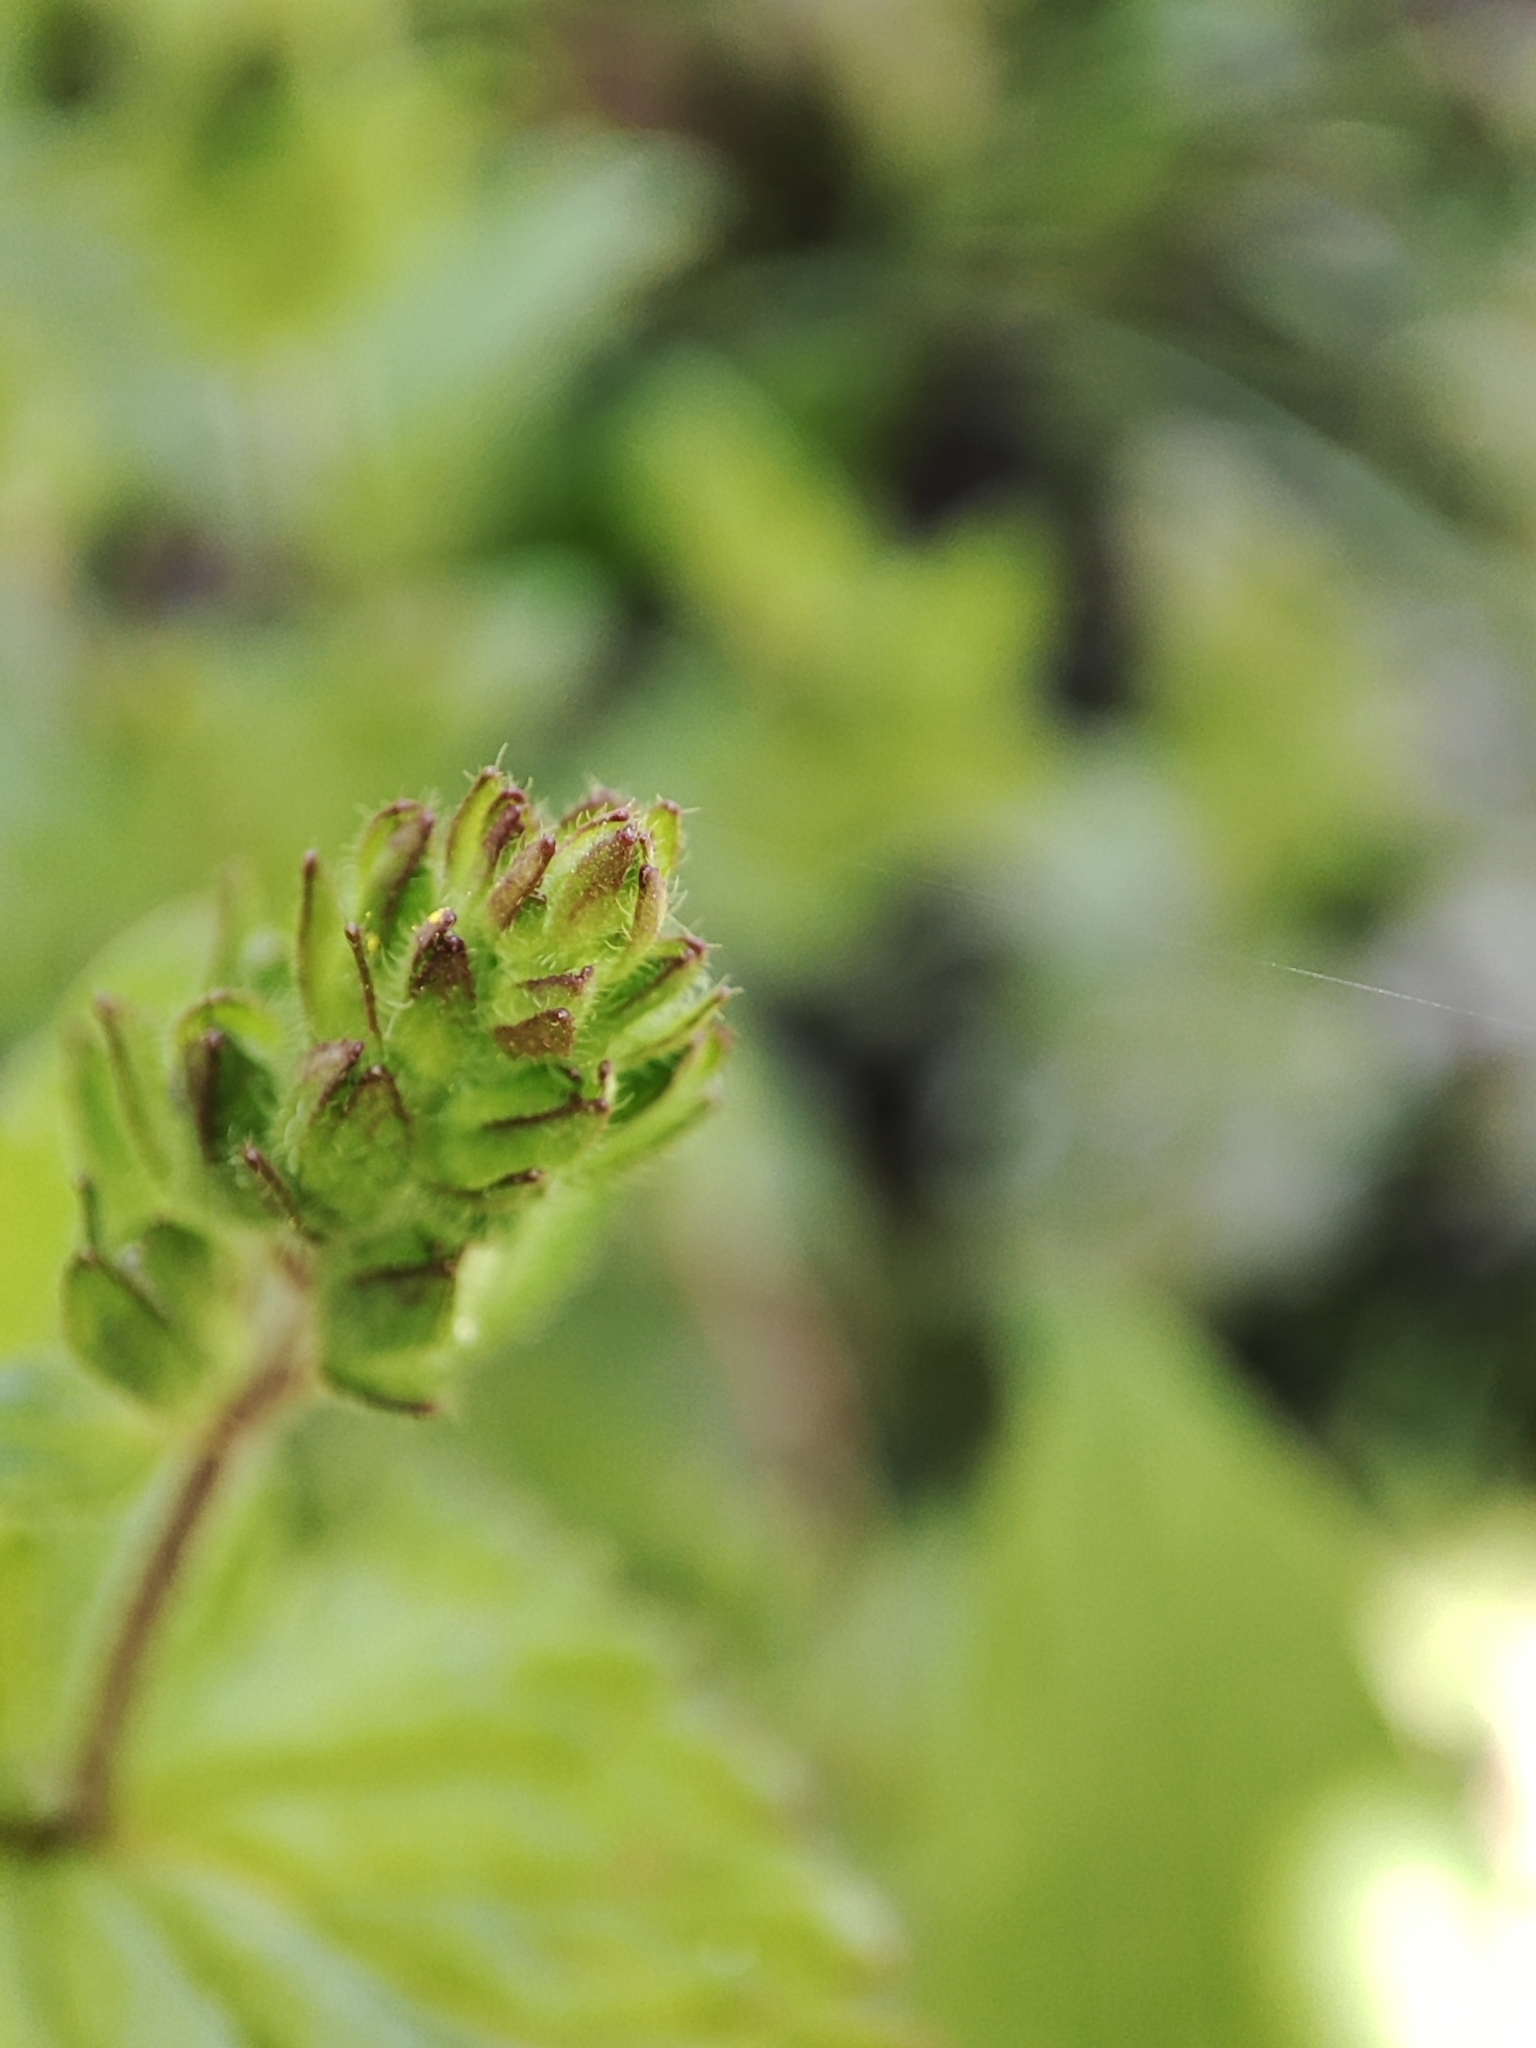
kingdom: Plantae
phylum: Tracheophyta
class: Magnoliopsida
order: Lamiales
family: Plantaginaceae
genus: Veronica
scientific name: Veronica chamaedrys
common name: Germander speedwell
